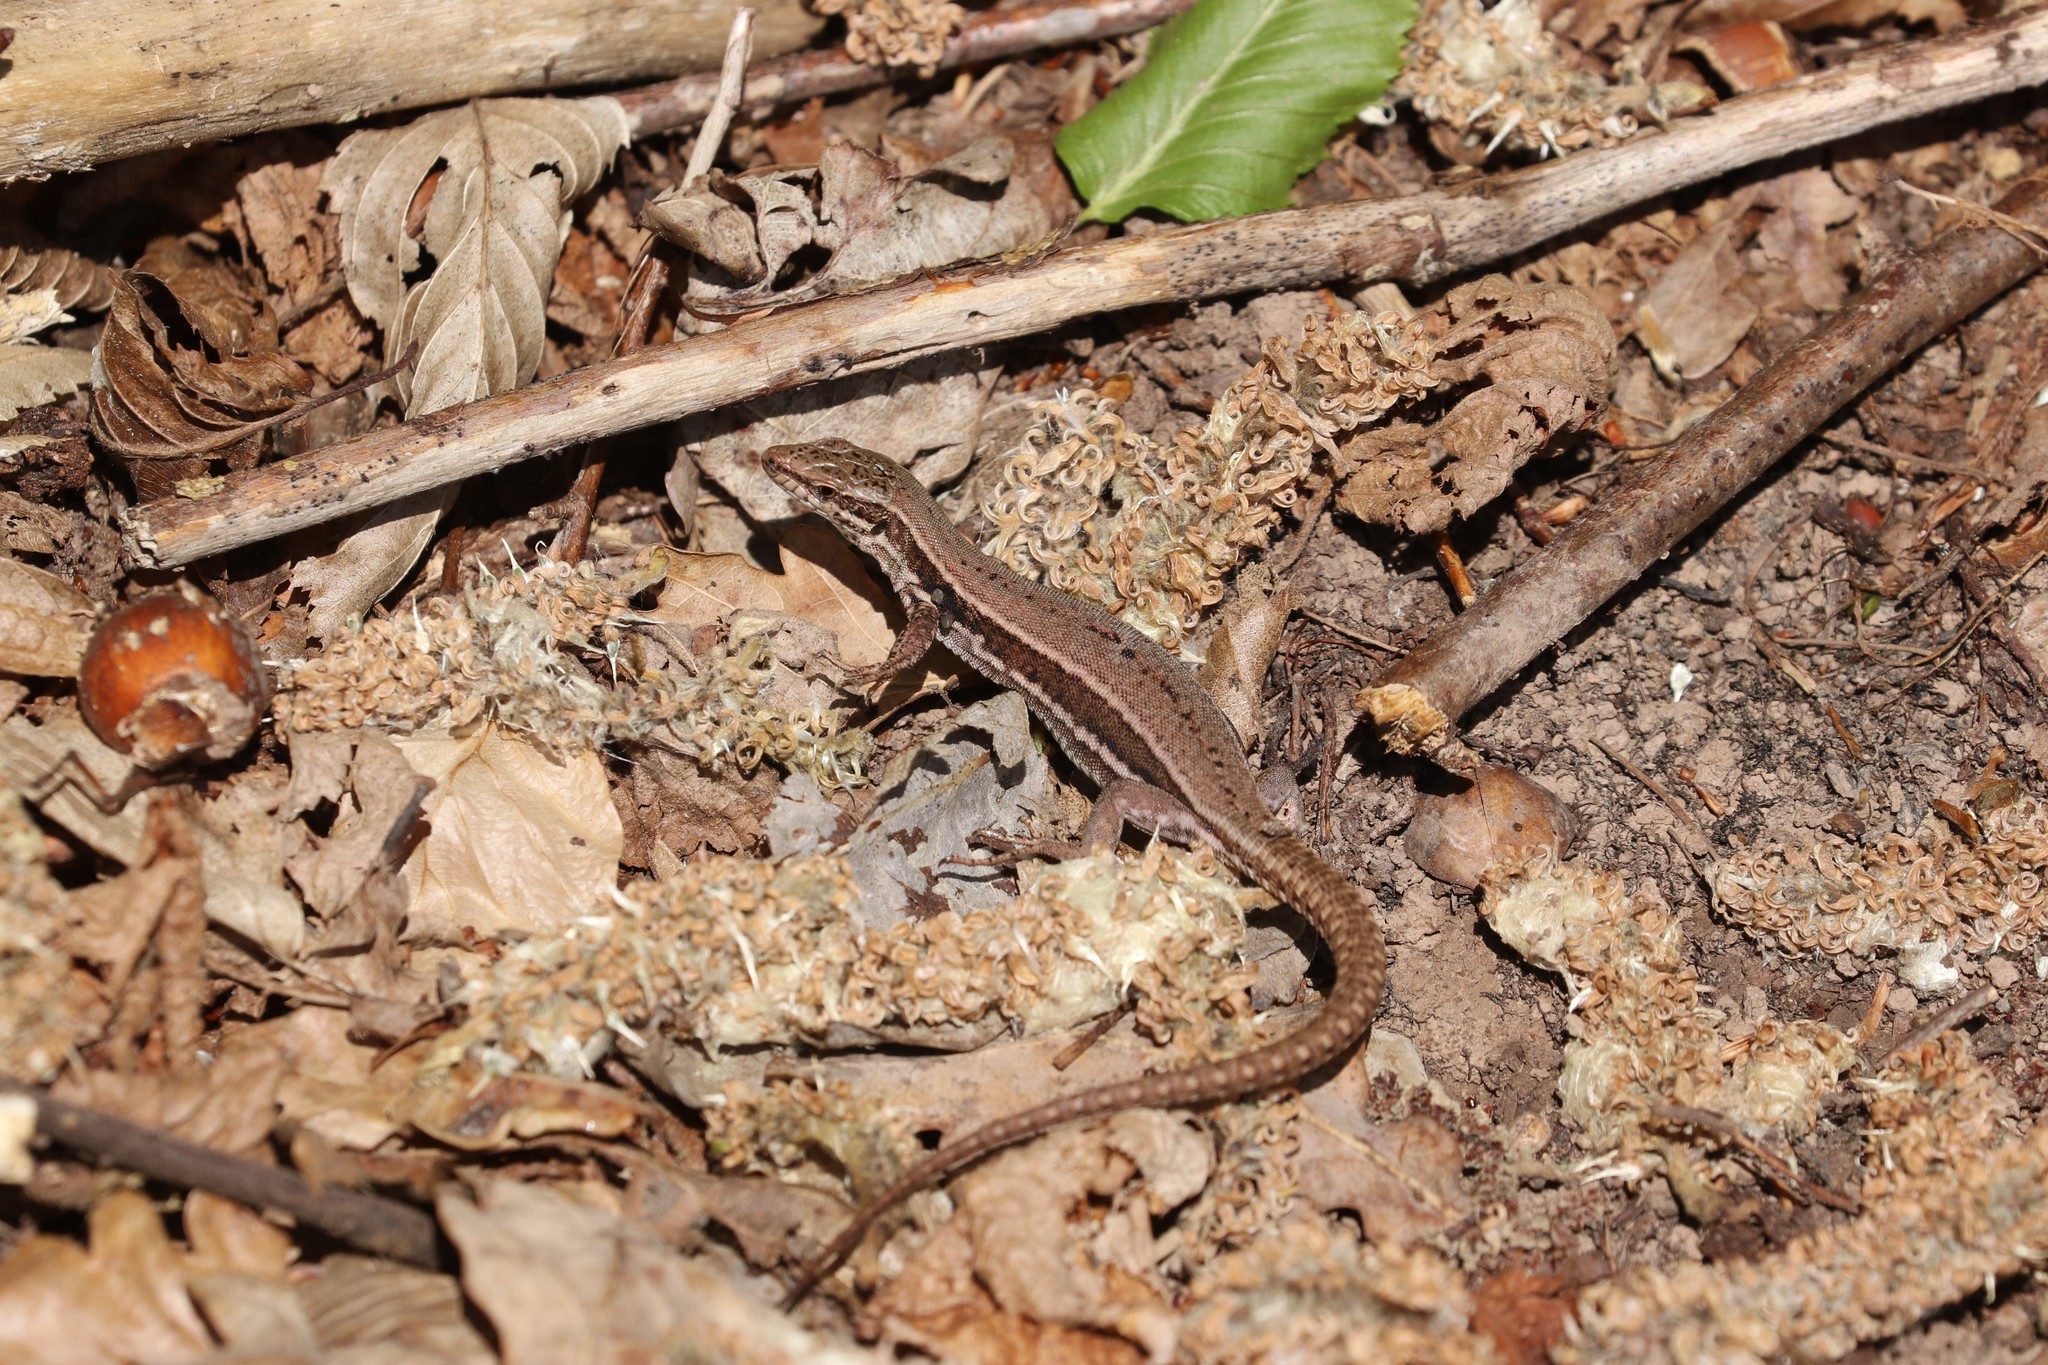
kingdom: Animalia
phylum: Chordata
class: Squamata
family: Lacertidae
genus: Podarcis
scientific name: Podarcis muralis
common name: Common wall lizard
